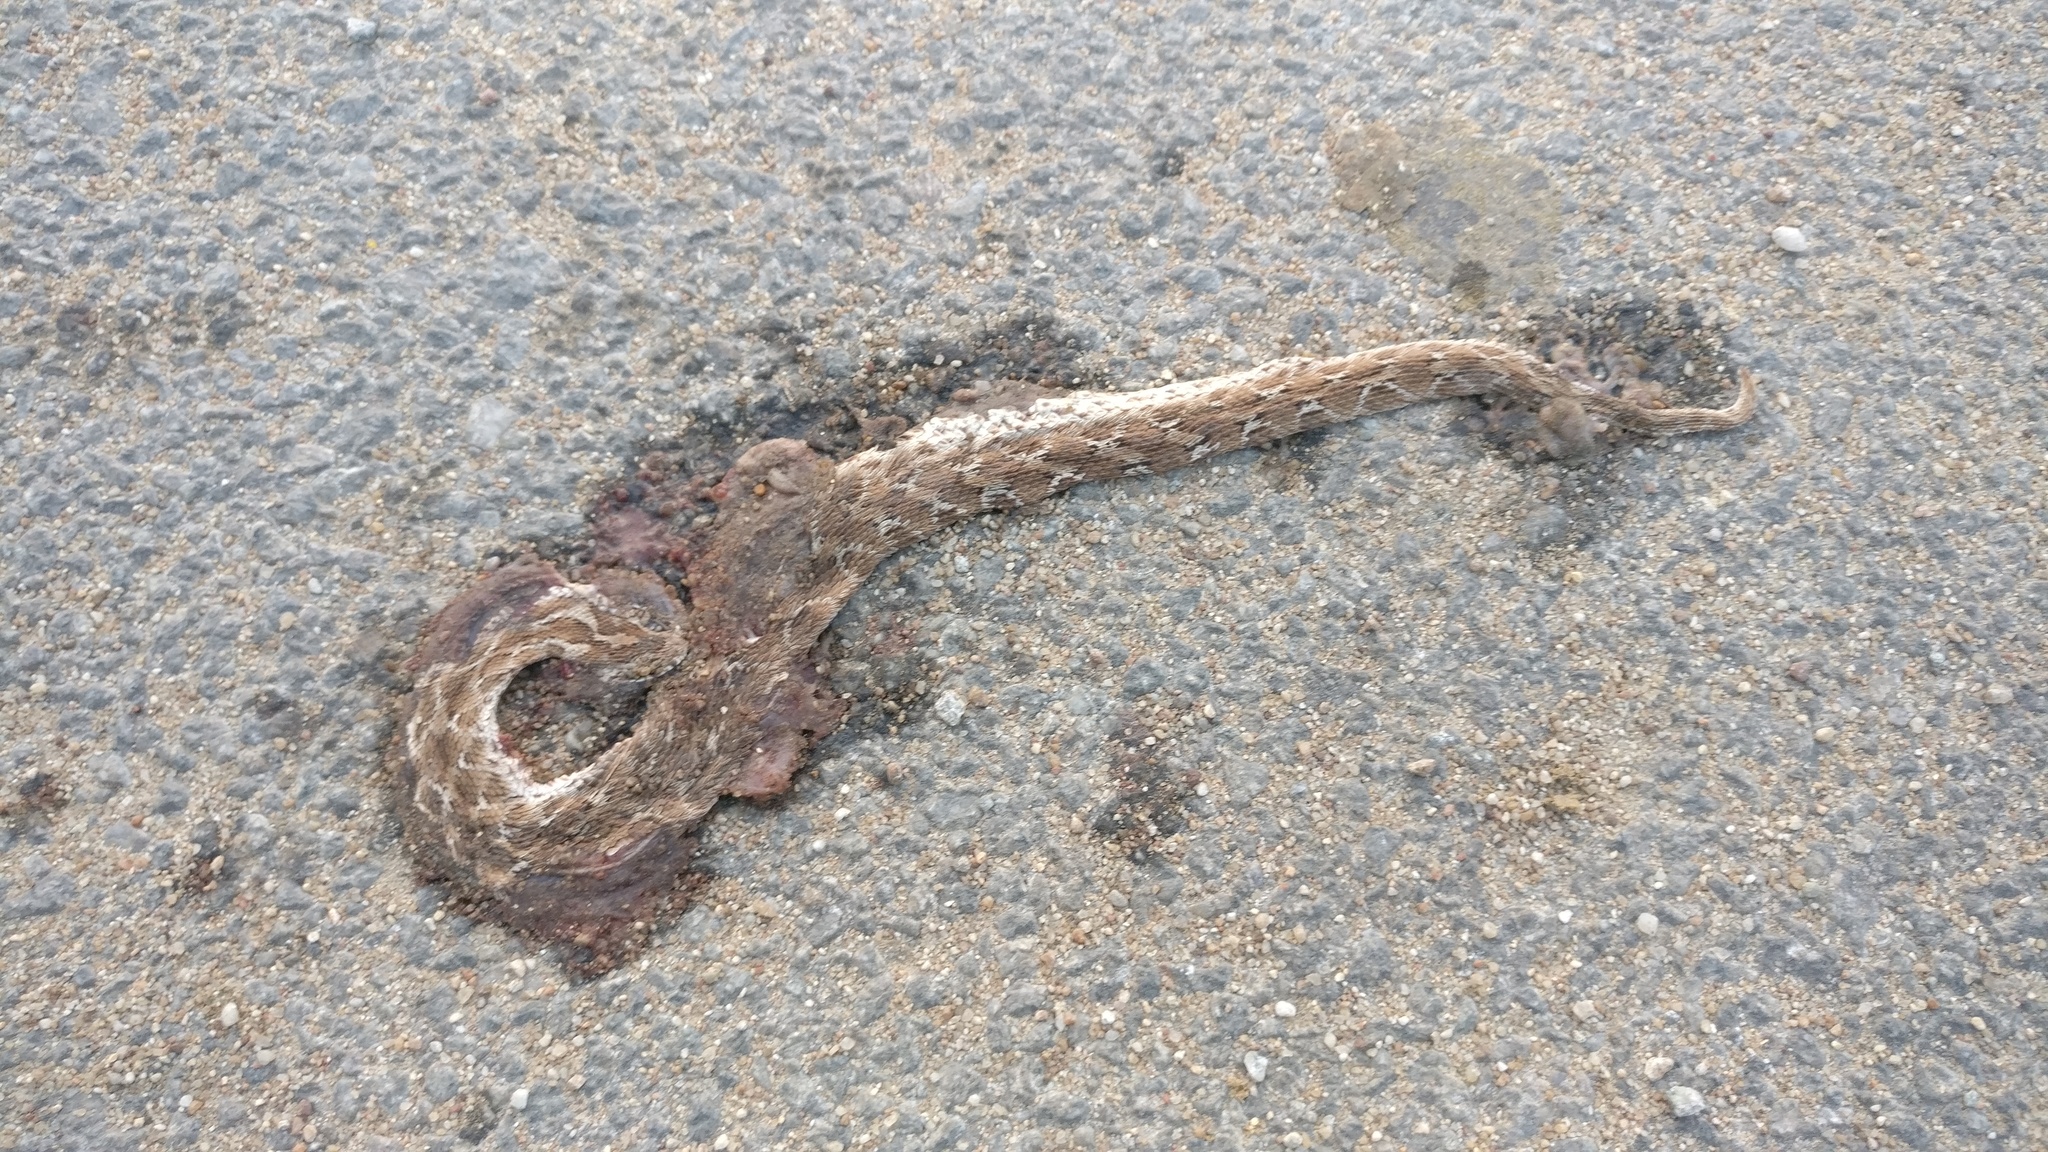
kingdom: Animalia
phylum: Chordata
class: Squamata
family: Viperidae
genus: Echis
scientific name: Echis carinatus
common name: Saw-scaled viper
